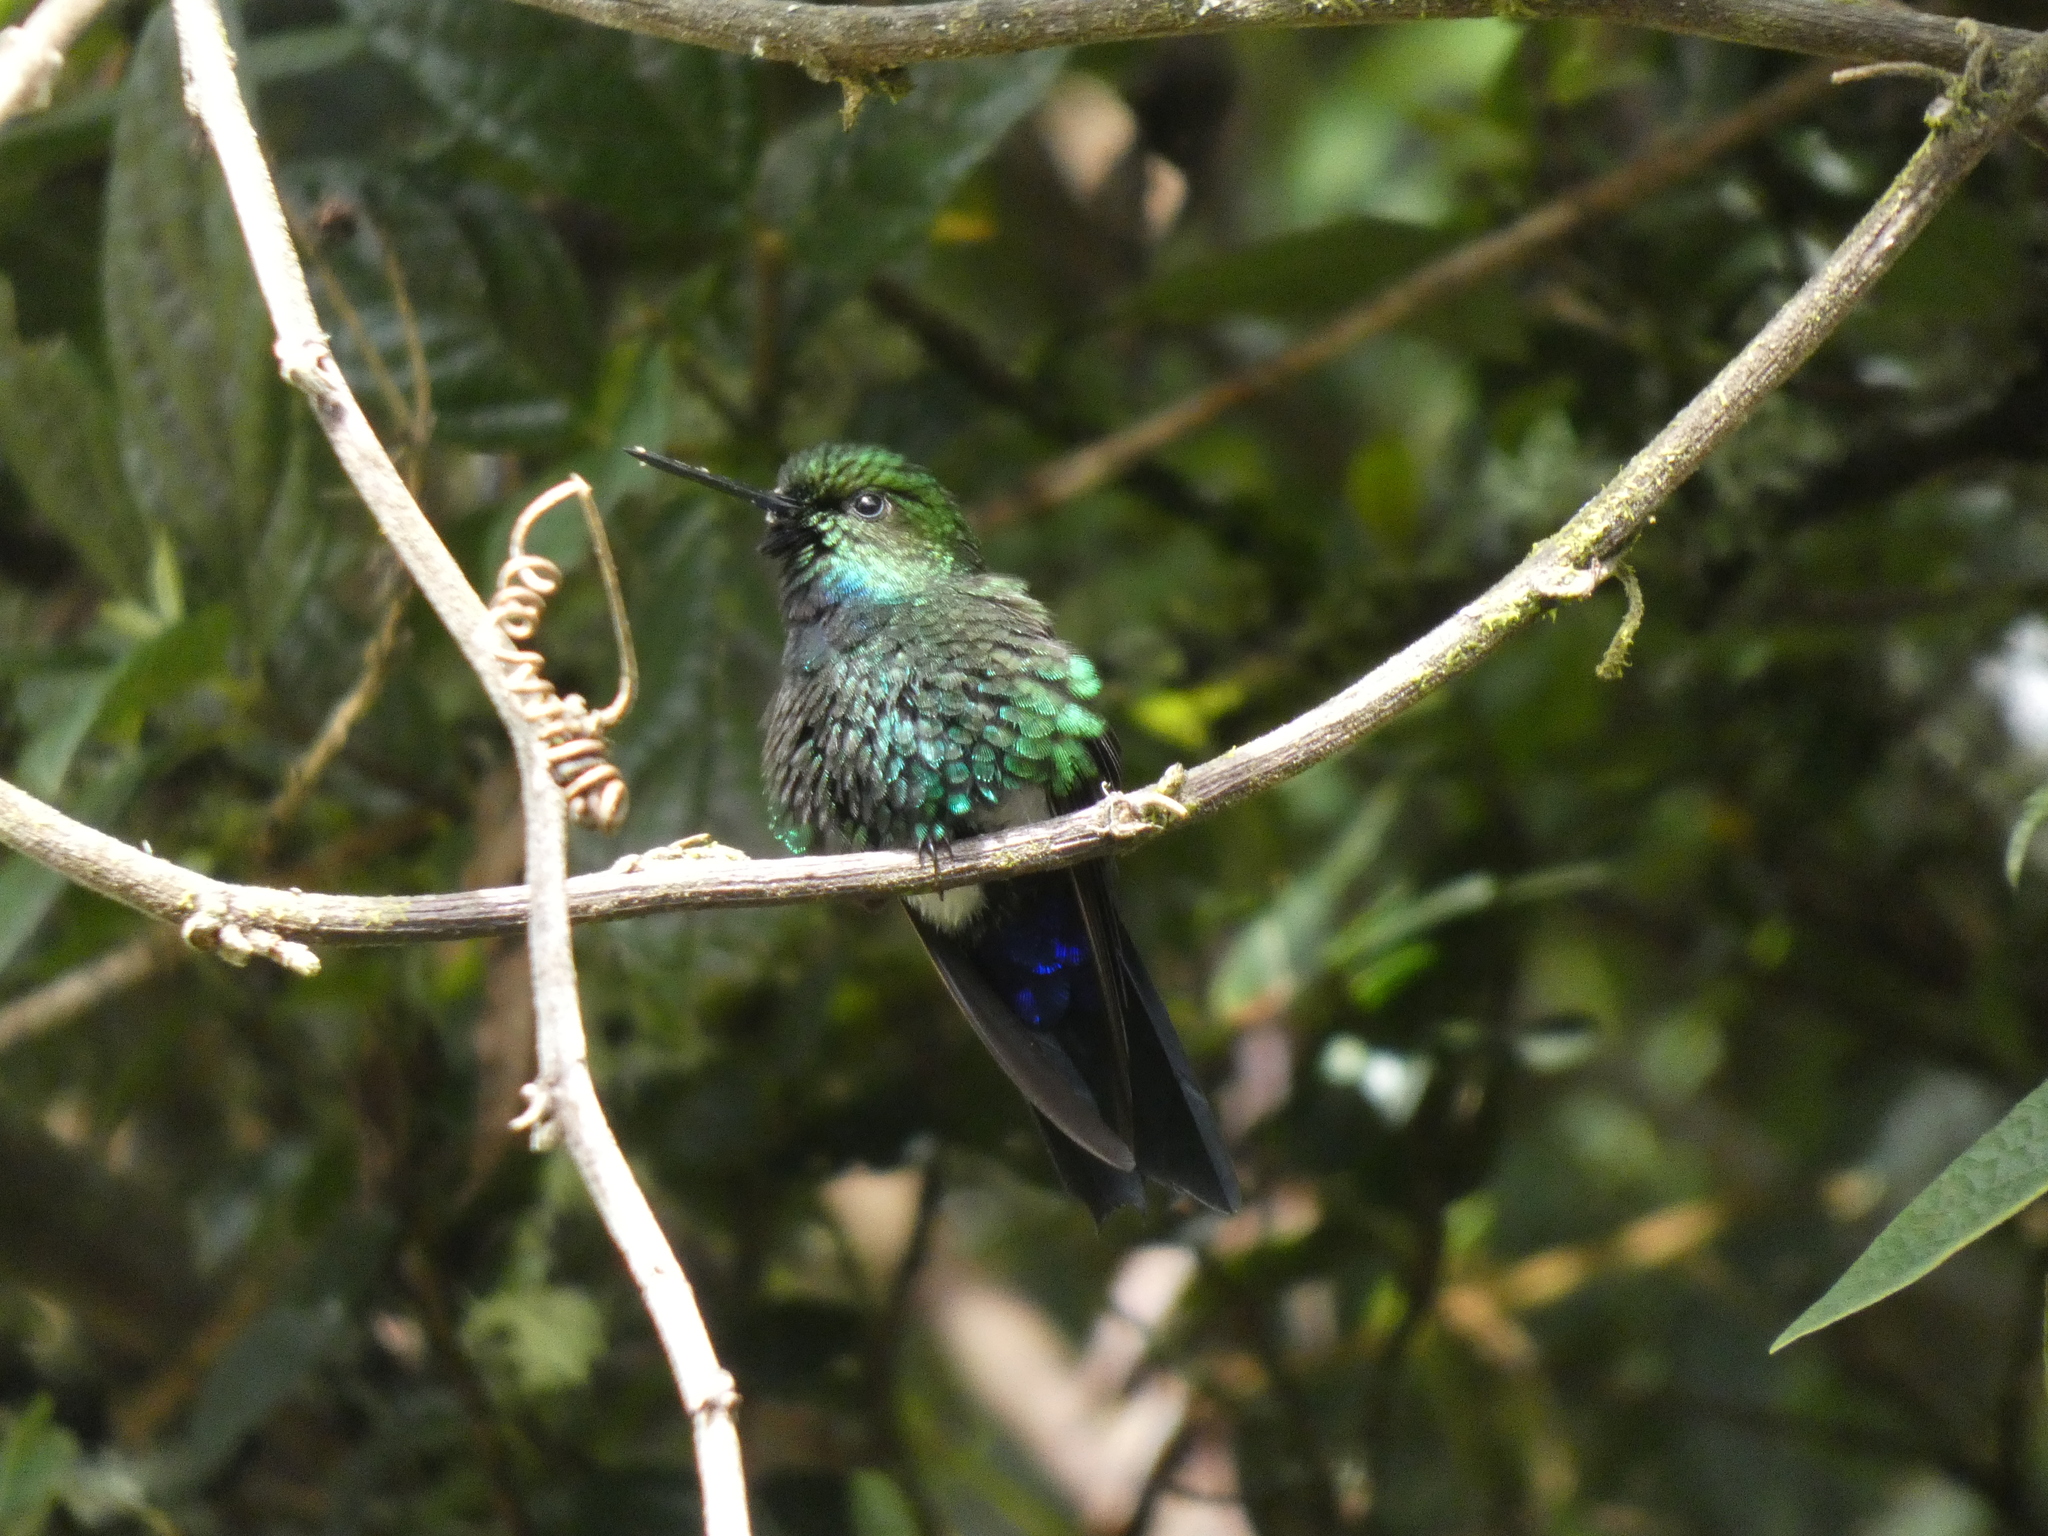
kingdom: Animalia
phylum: Chordata
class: Aves
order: Apodiformes
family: Trochilidae
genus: Eriocnemis
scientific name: Eriocnemis vestita
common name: Glowing puffleg
